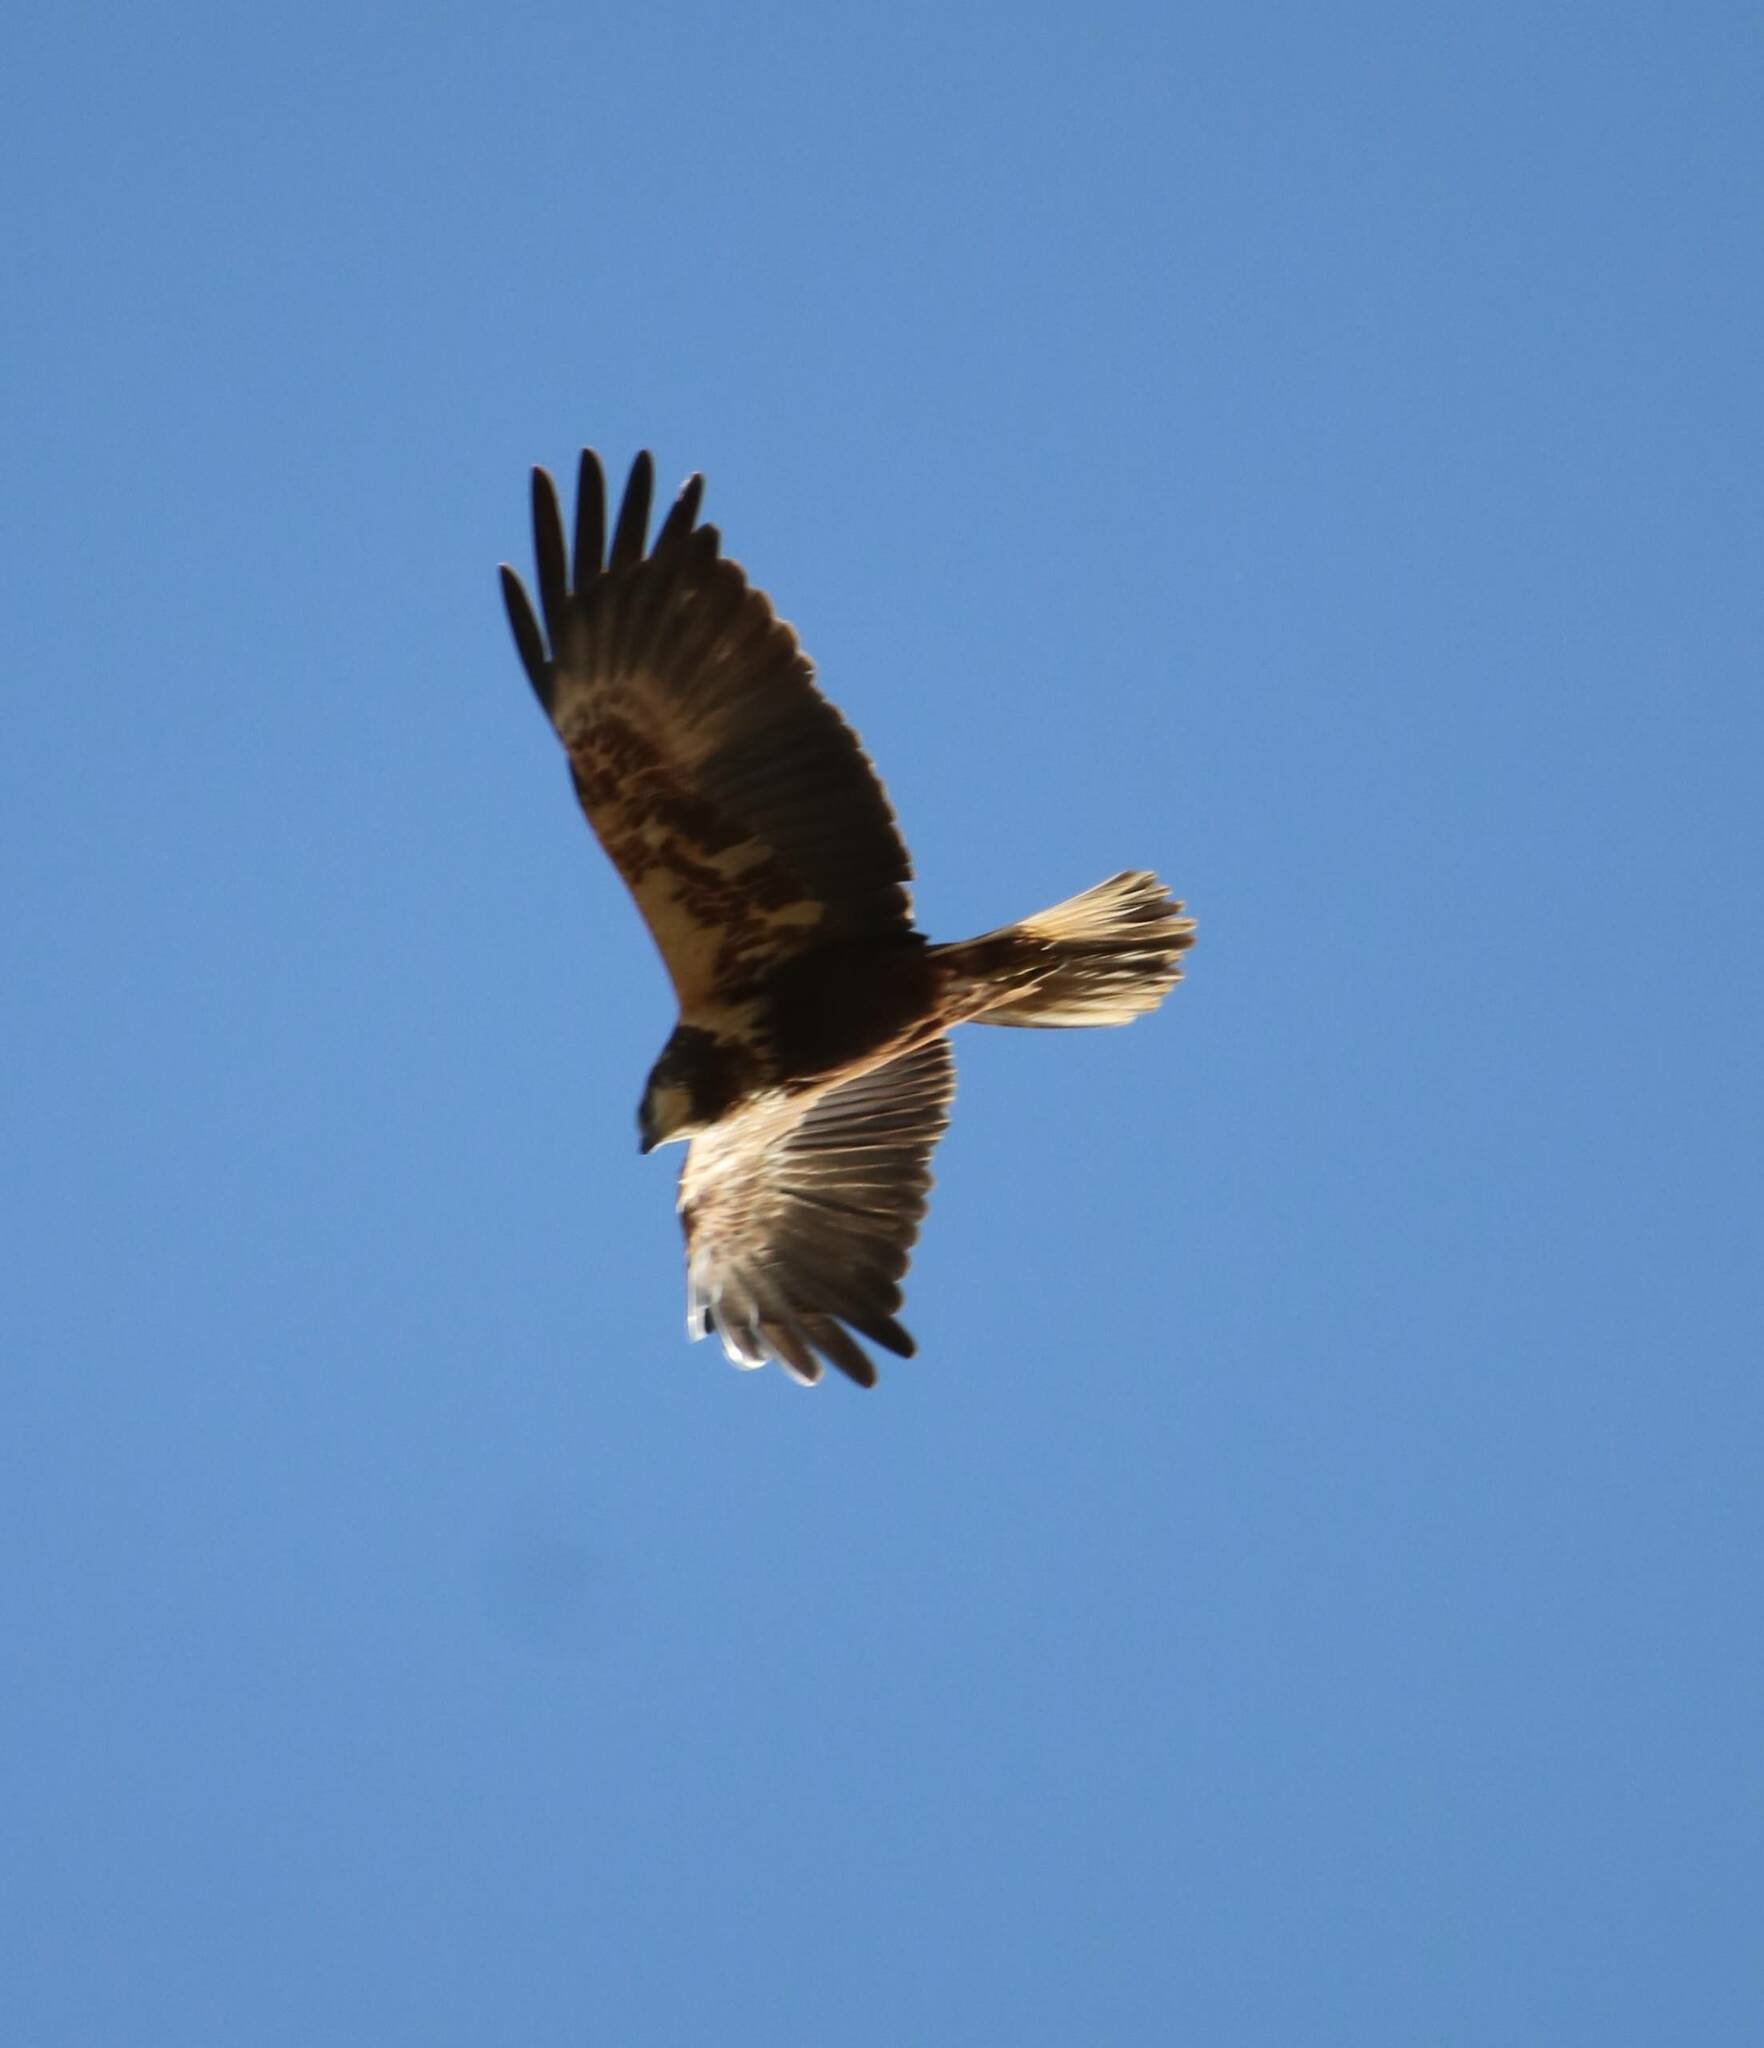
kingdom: Animalia
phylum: Chordata
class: Aves
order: Accipitriformes
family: Accipitridae
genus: Circus
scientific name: Circus aeruginosus
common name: Western marsh harrier
